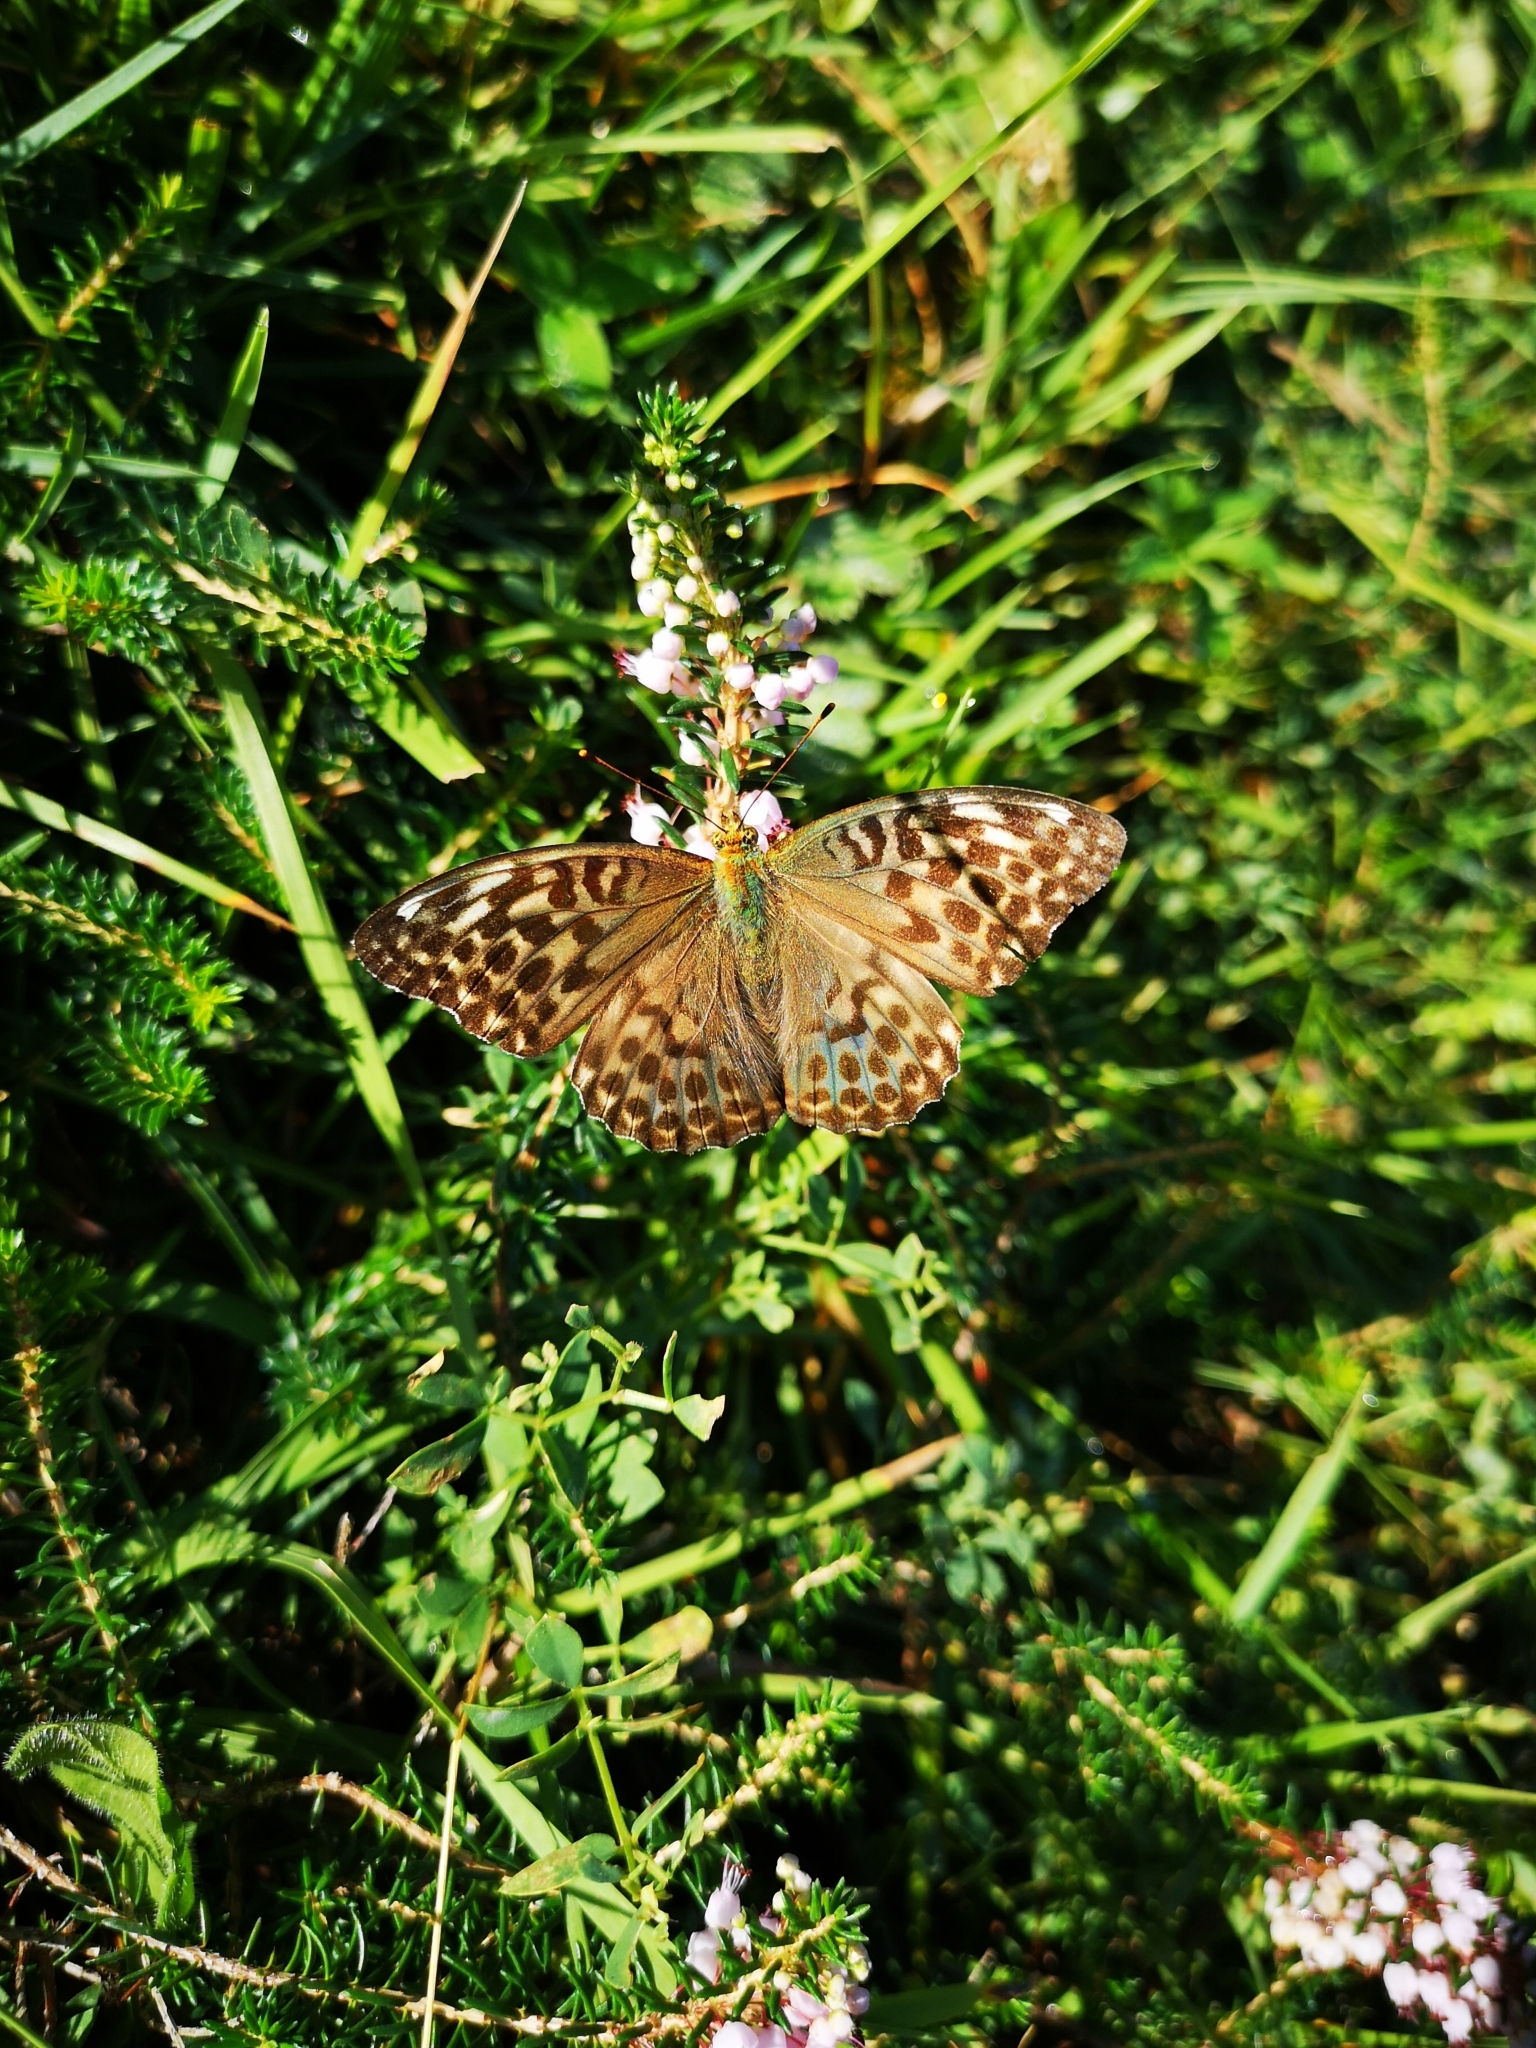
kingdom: Animalia
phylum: Arthropoda
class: Insecta
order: Lepidoptera
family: Nymphalidae
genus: Argynnis
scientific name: Argynnis paphia
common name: Silver-washed fritillary
